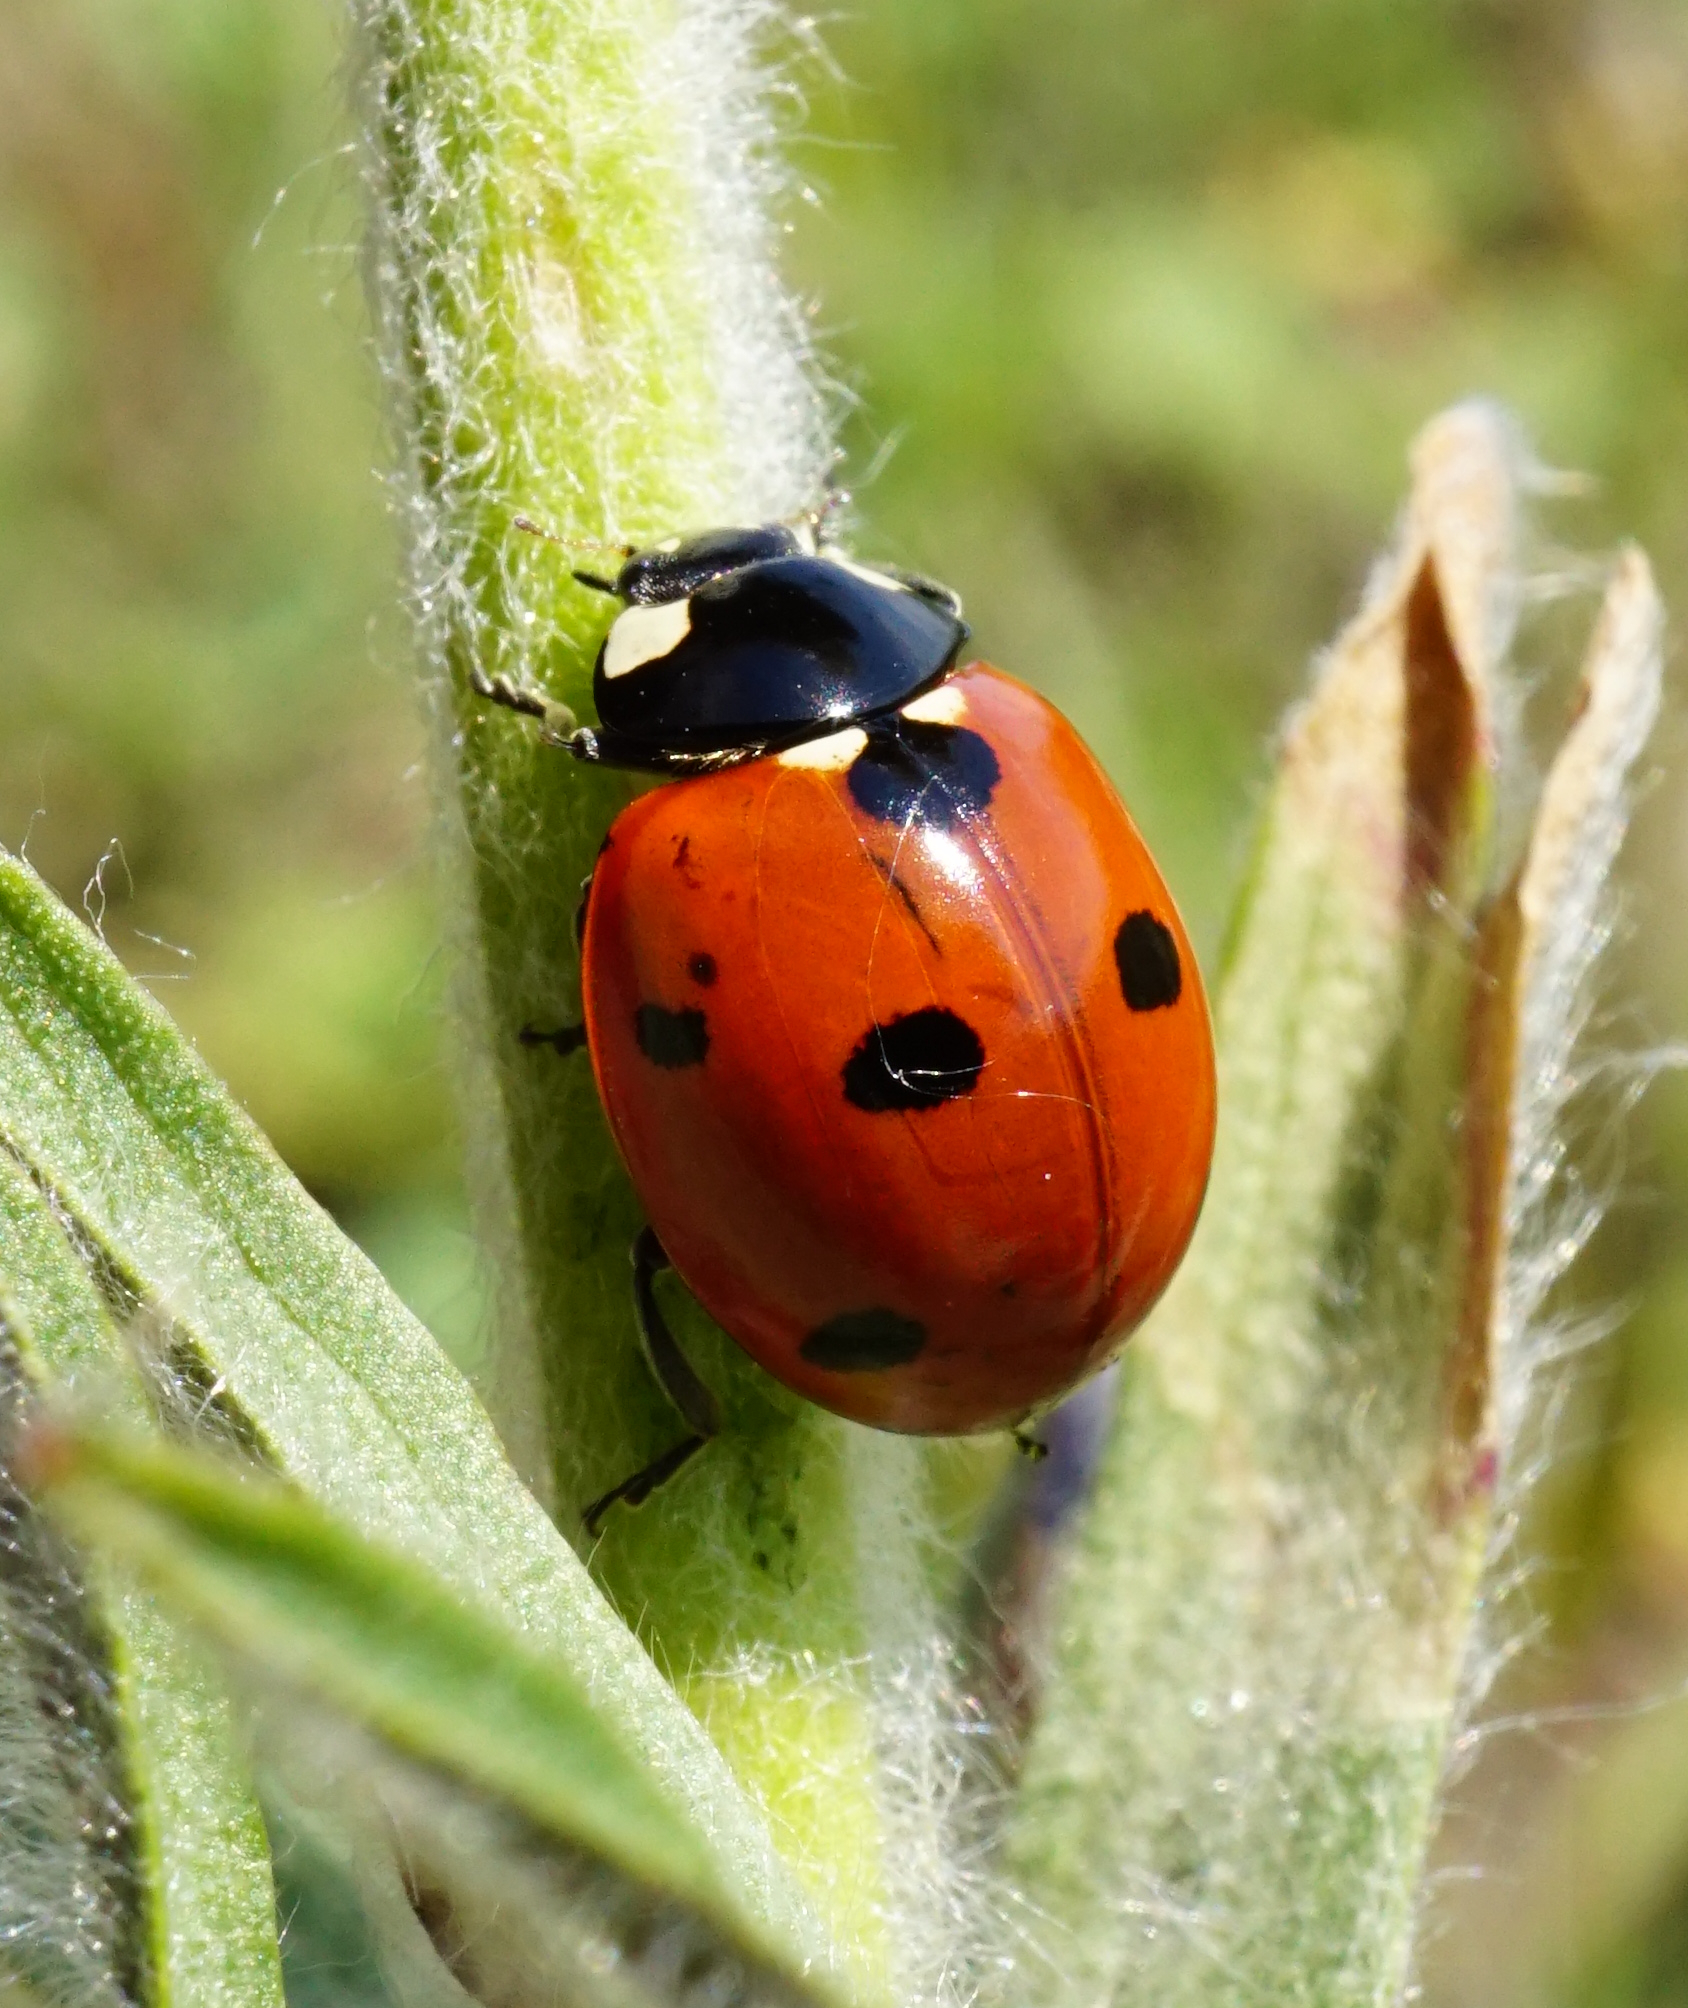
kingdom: Animalia
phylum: Arthropoda
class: Insecta
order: Coleoptera
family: Coccinellidae
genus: Coccinella
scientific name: Coccinella septempunctata
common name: Sevenspotted lady beetle
